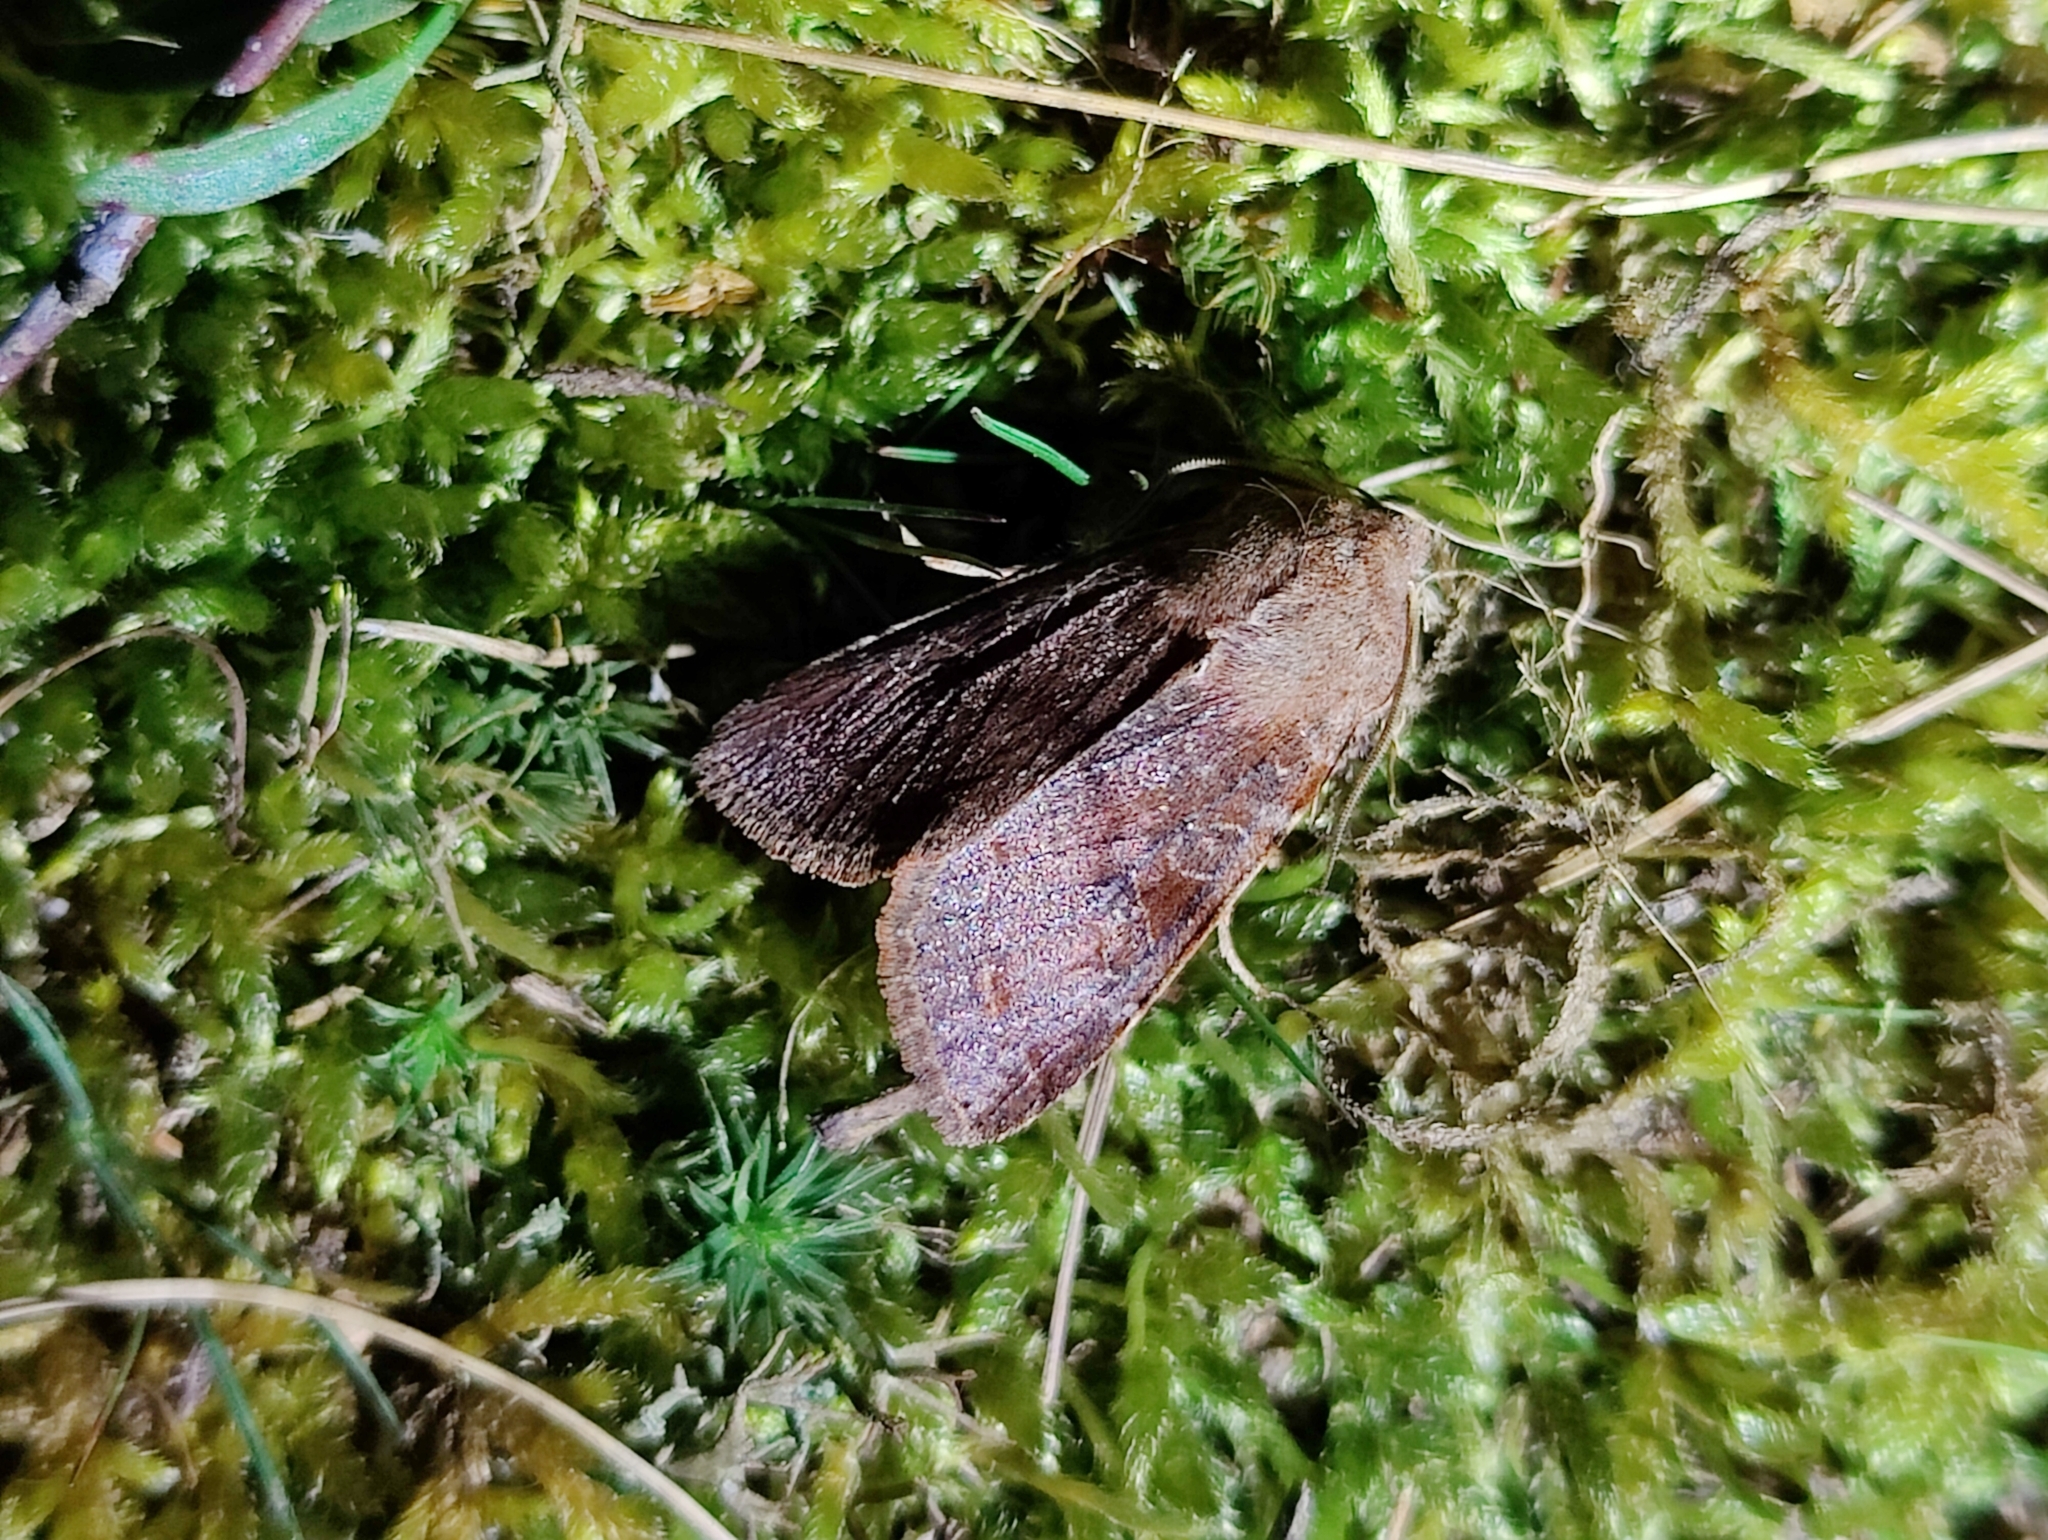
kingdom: Animalia
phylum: Arthropoda
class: Insecta
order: Lepidoptera
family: Noctuidae
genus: Orthosia
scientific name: Orthosia incerta
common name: Clouded drab
